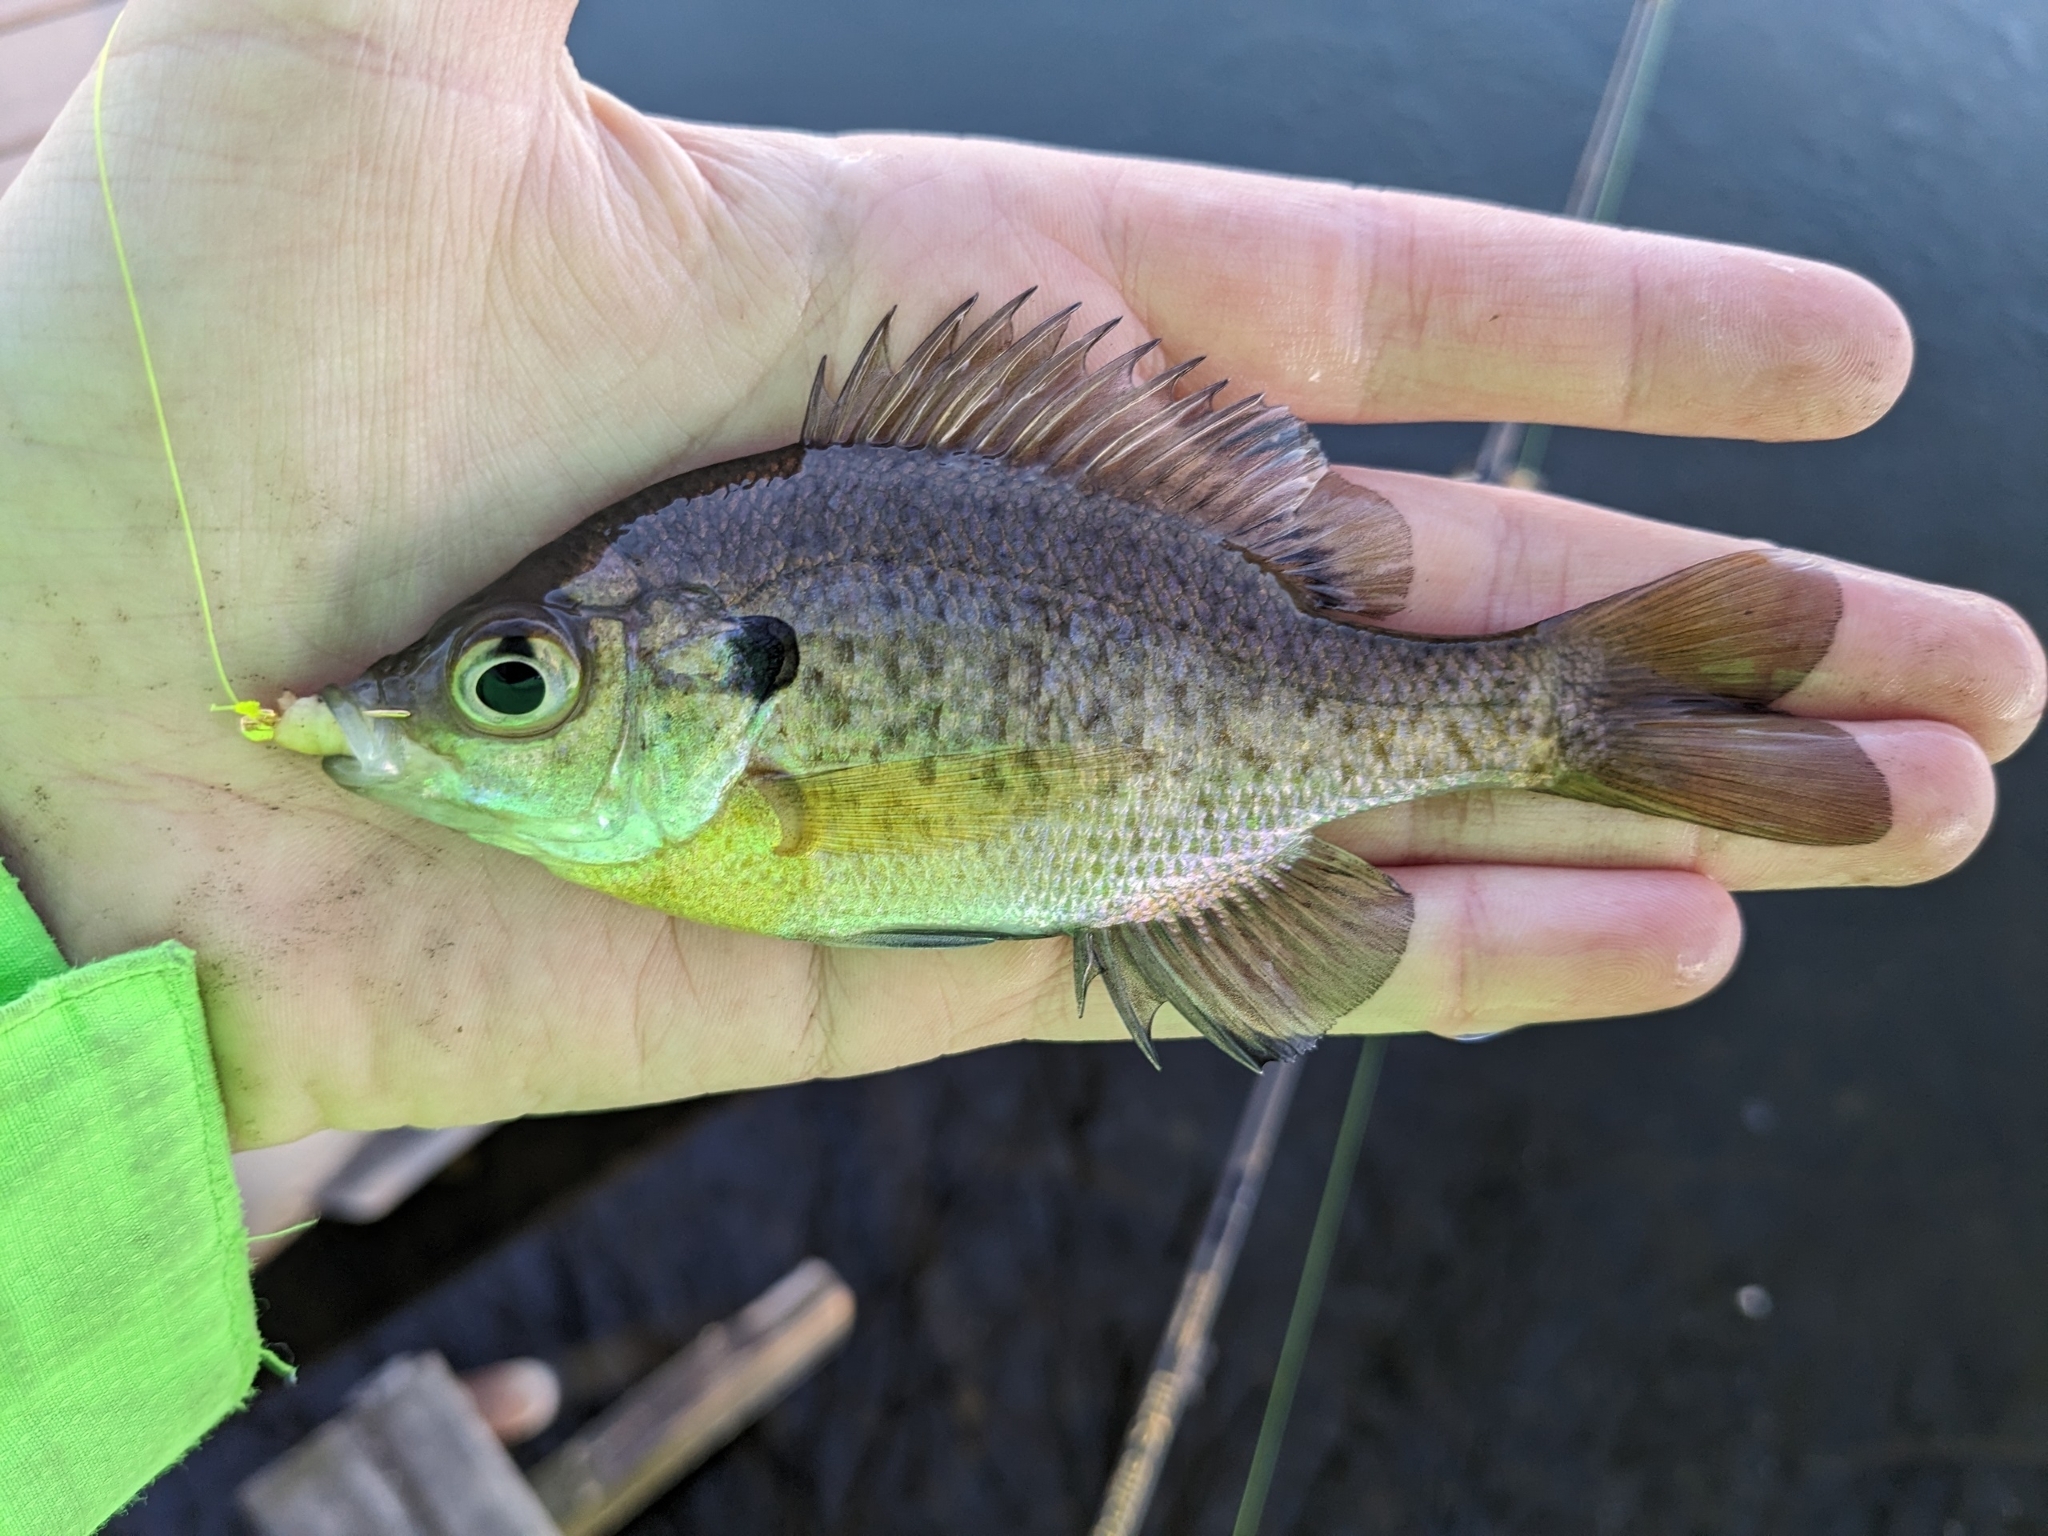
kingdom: Animalia
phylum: Chordata
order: Perciformes
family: Centrarchidae
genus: Lepomis
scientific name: Lepomis macrochirus
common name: Bluegill
